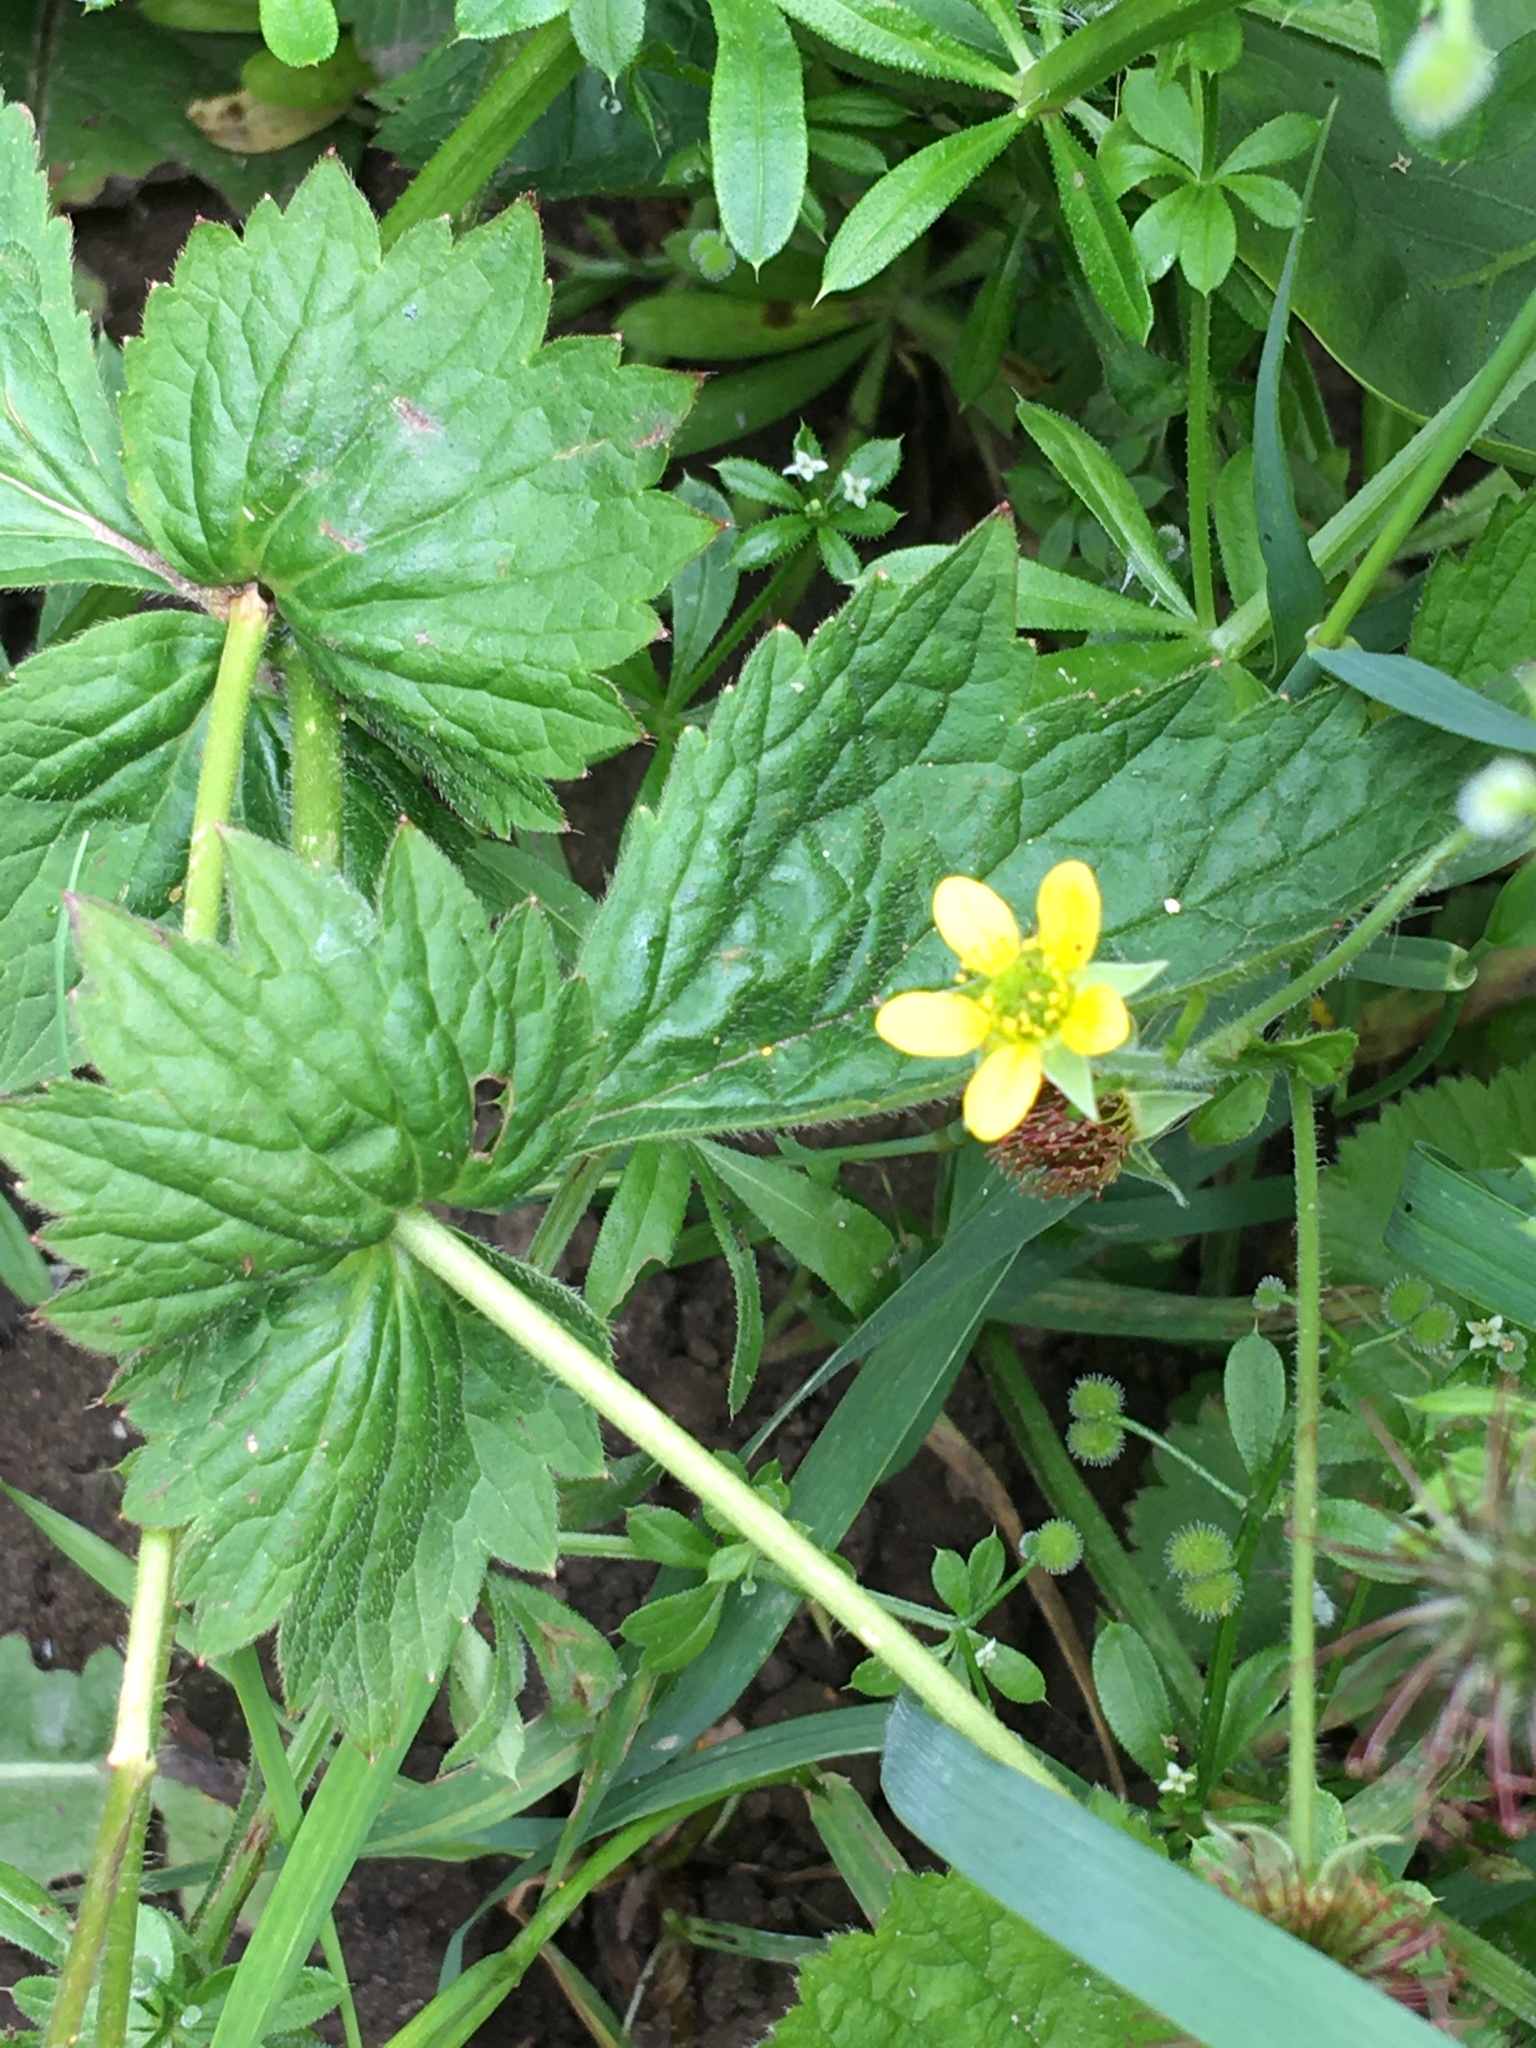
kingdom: Plantae
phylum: Tracheophyta
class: Magnoliopsida
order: Rosales
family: Rosaceae
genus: Geum
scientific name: Geum urbanum
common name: Wood avens
